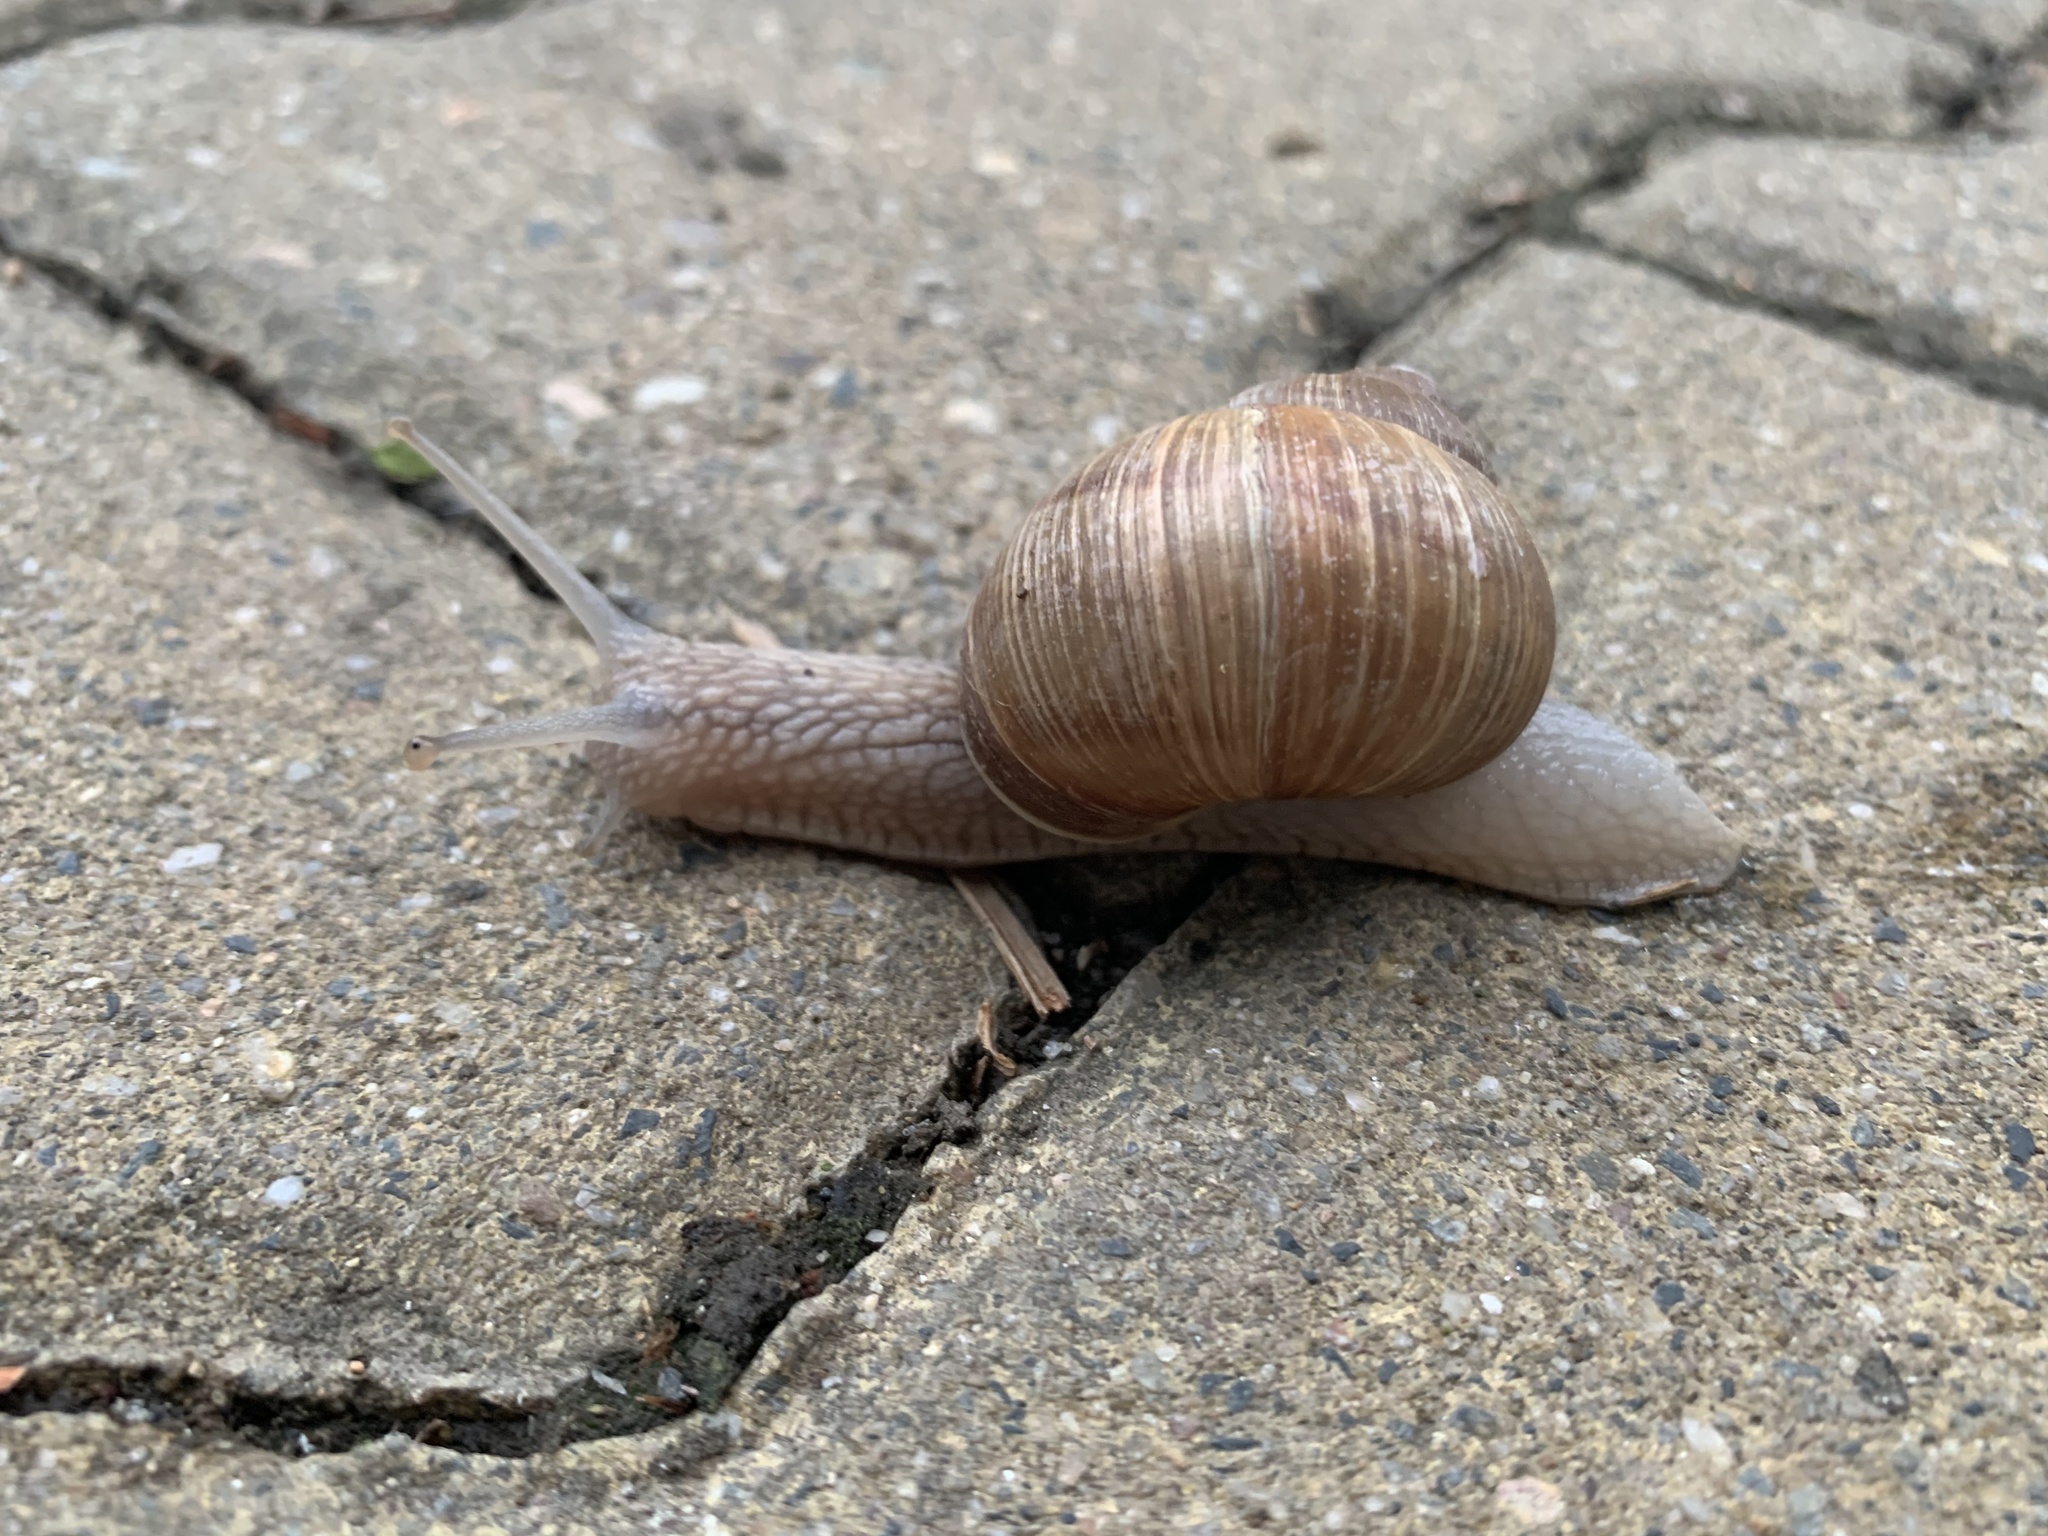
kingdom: Animalia
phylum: Mollusca
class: Gastropoda
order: Stylommatophora
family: Helicidae
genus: Helix
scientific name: Helix pomatia
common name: Roman snail
